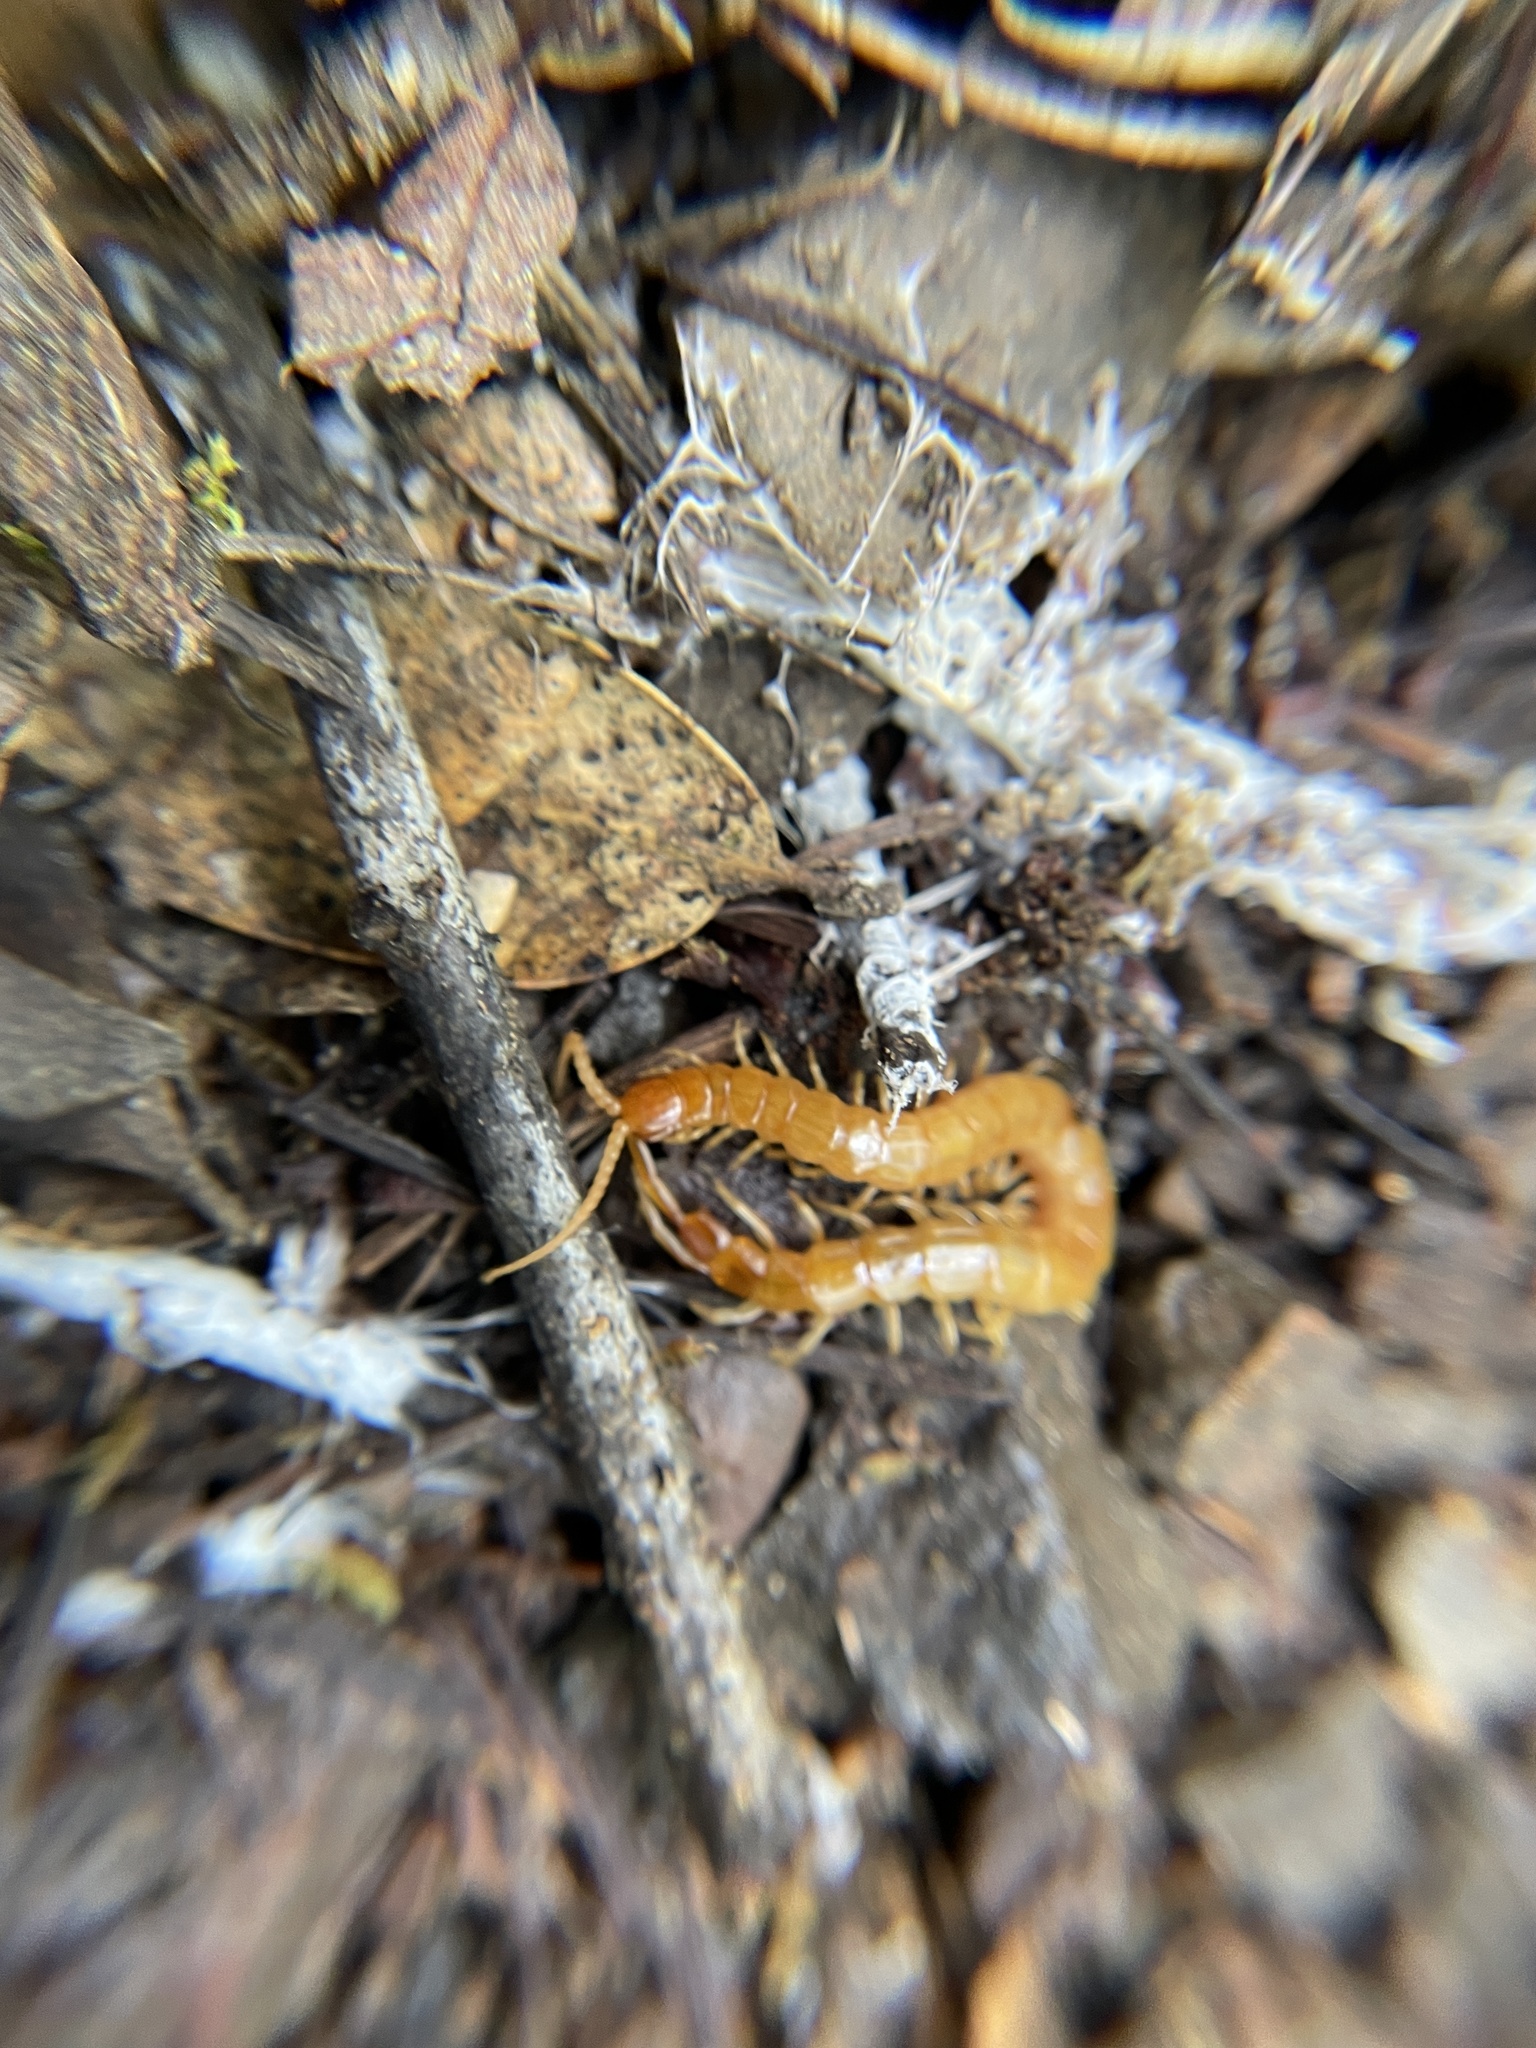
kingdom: Animalia
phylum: Arthropoda
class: Chilopoda
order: Scolopendromorpha
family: Scolopocryptopidae
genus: Scolopocryptops
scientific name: Scolopocryptops gracilis
